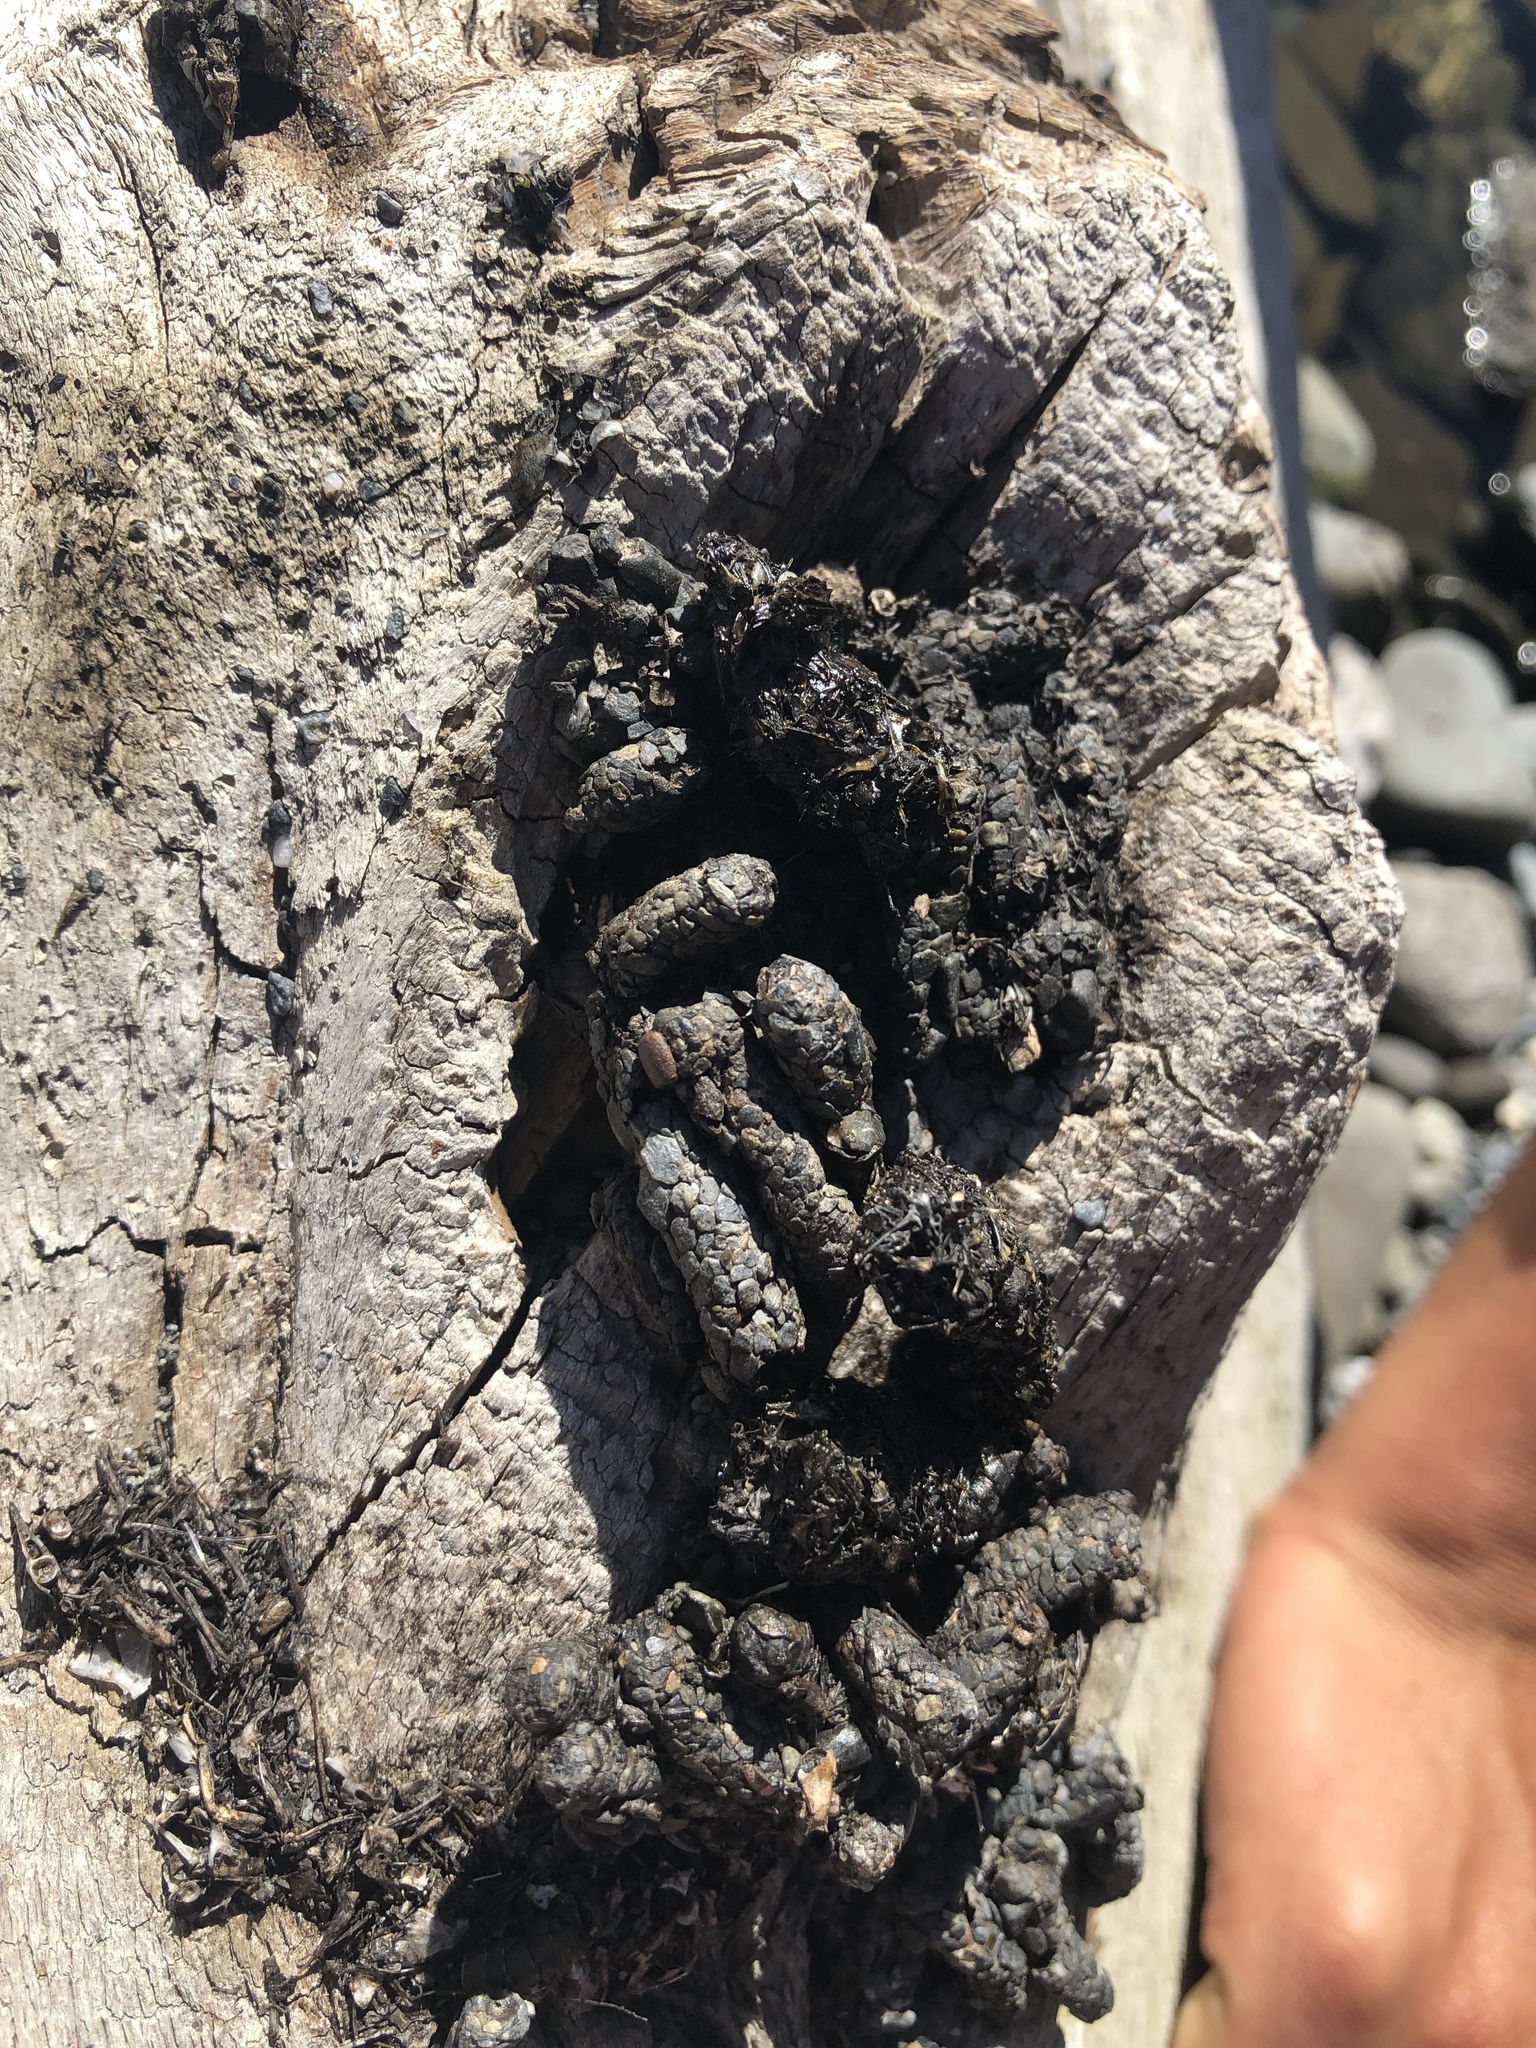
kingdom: Animalia
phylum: Chordata
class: Mammalia
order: Carnivora
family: Mustelidae
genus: Lontra
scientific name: Lontra canadensis
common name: North american river otter
